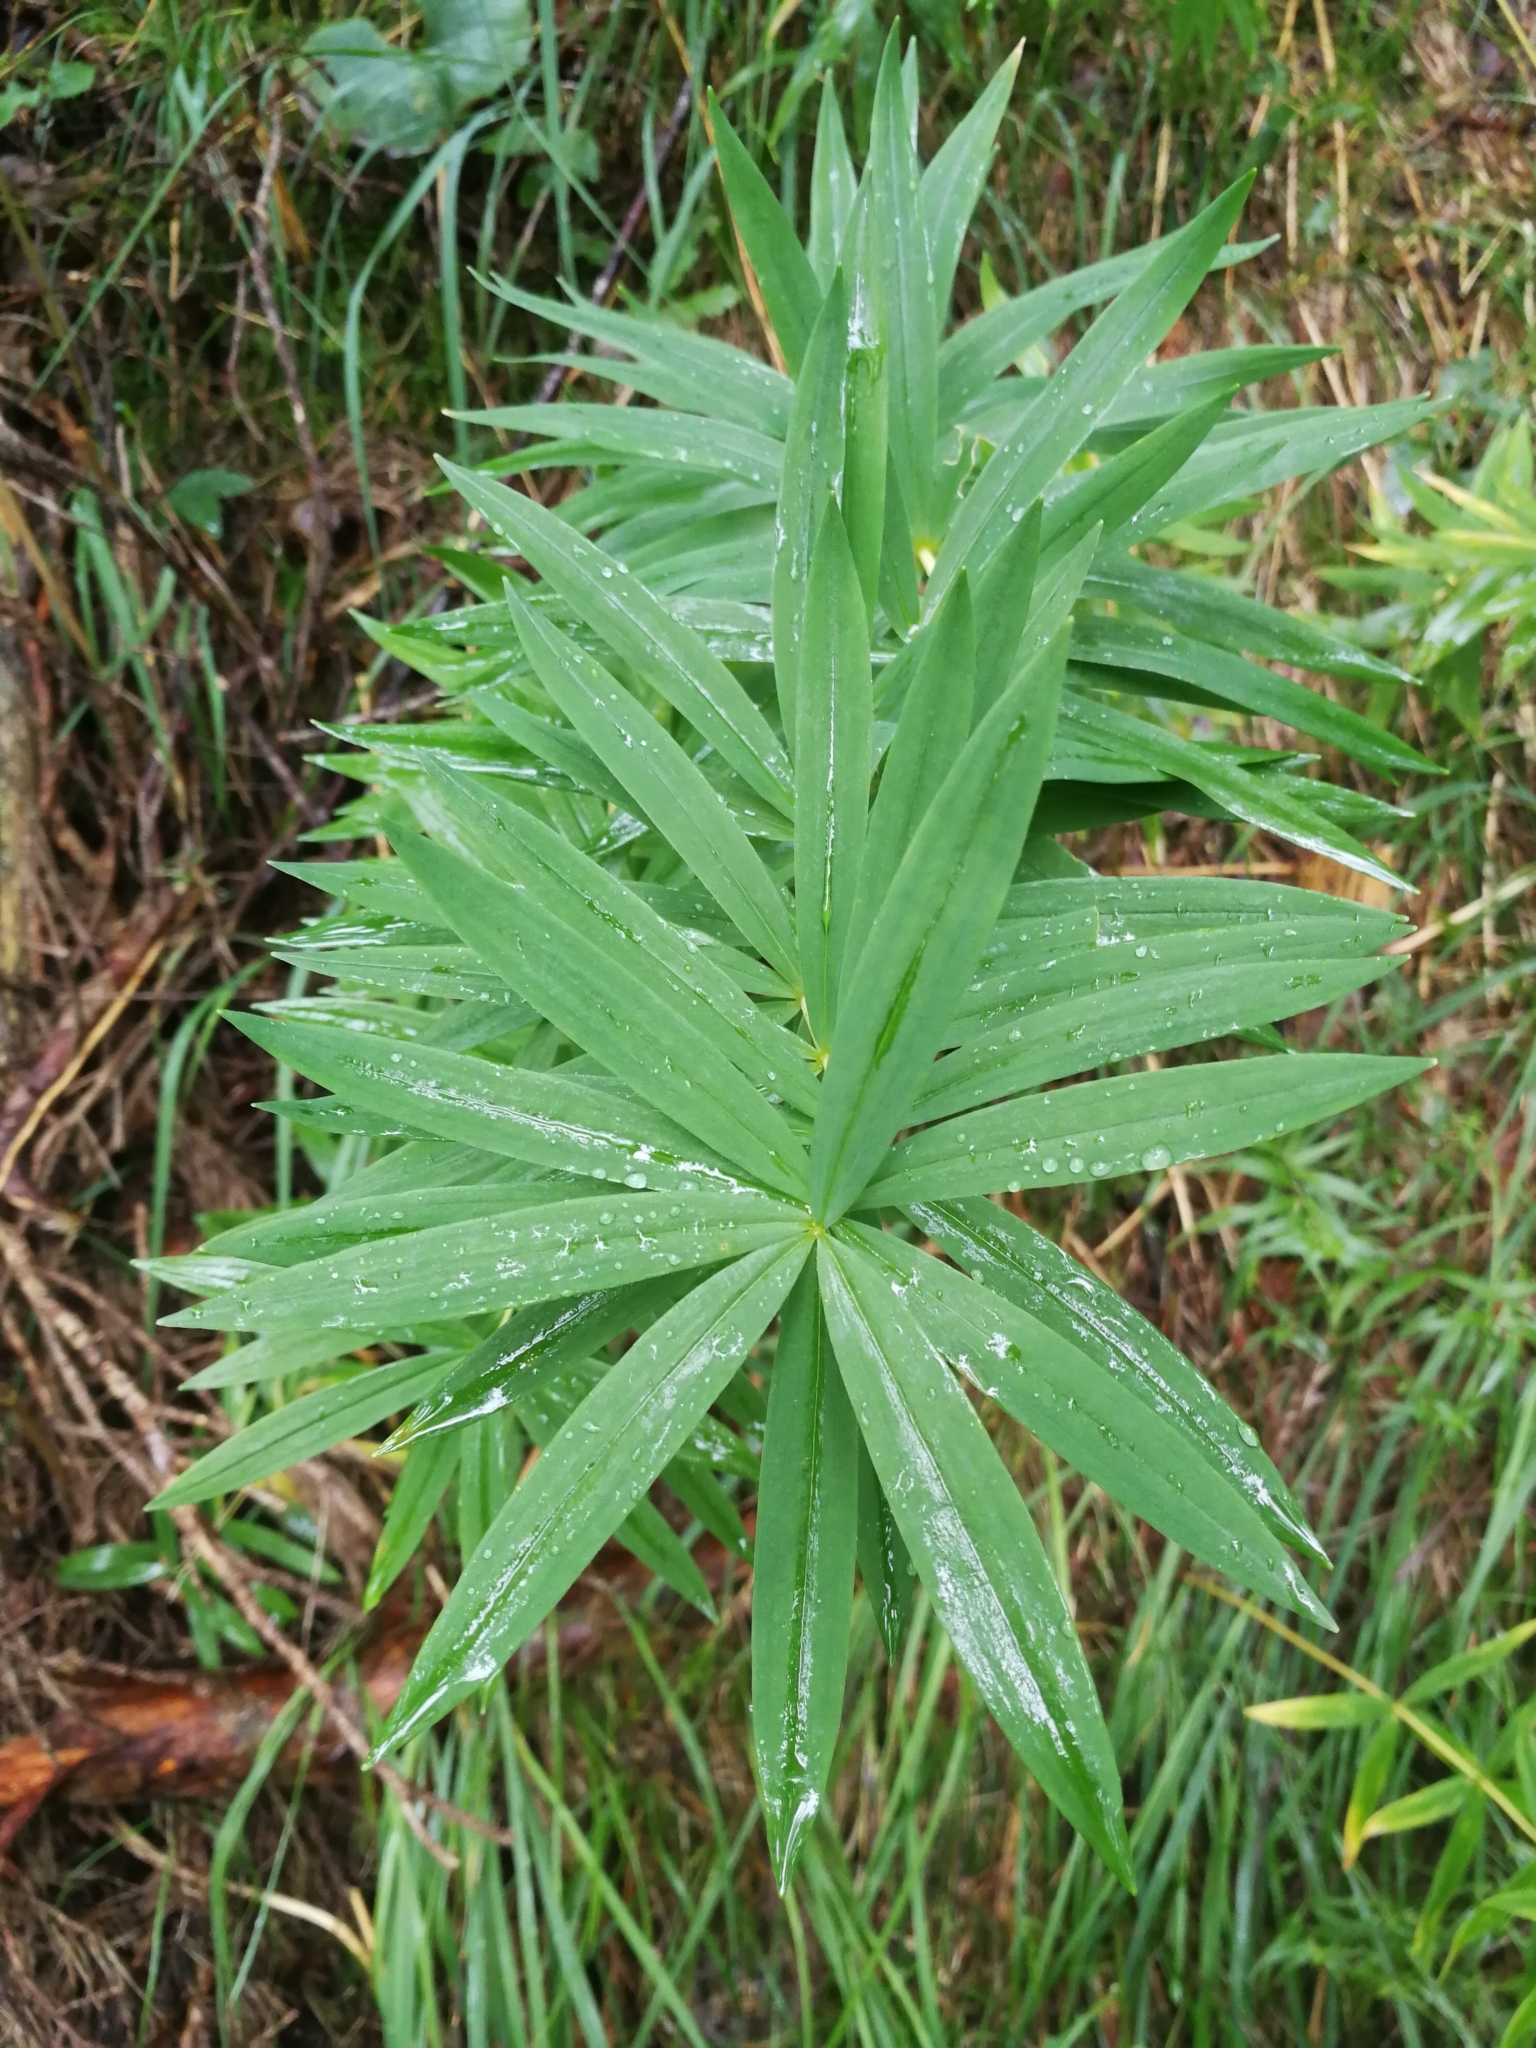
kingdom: Plantae
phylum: Tracheophyta
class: Liliopsida
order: Asparagales
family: Asparagaceae
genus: Polygonatum
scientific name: Polygonatum verticillatum
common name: Whorled solomon's-seal
